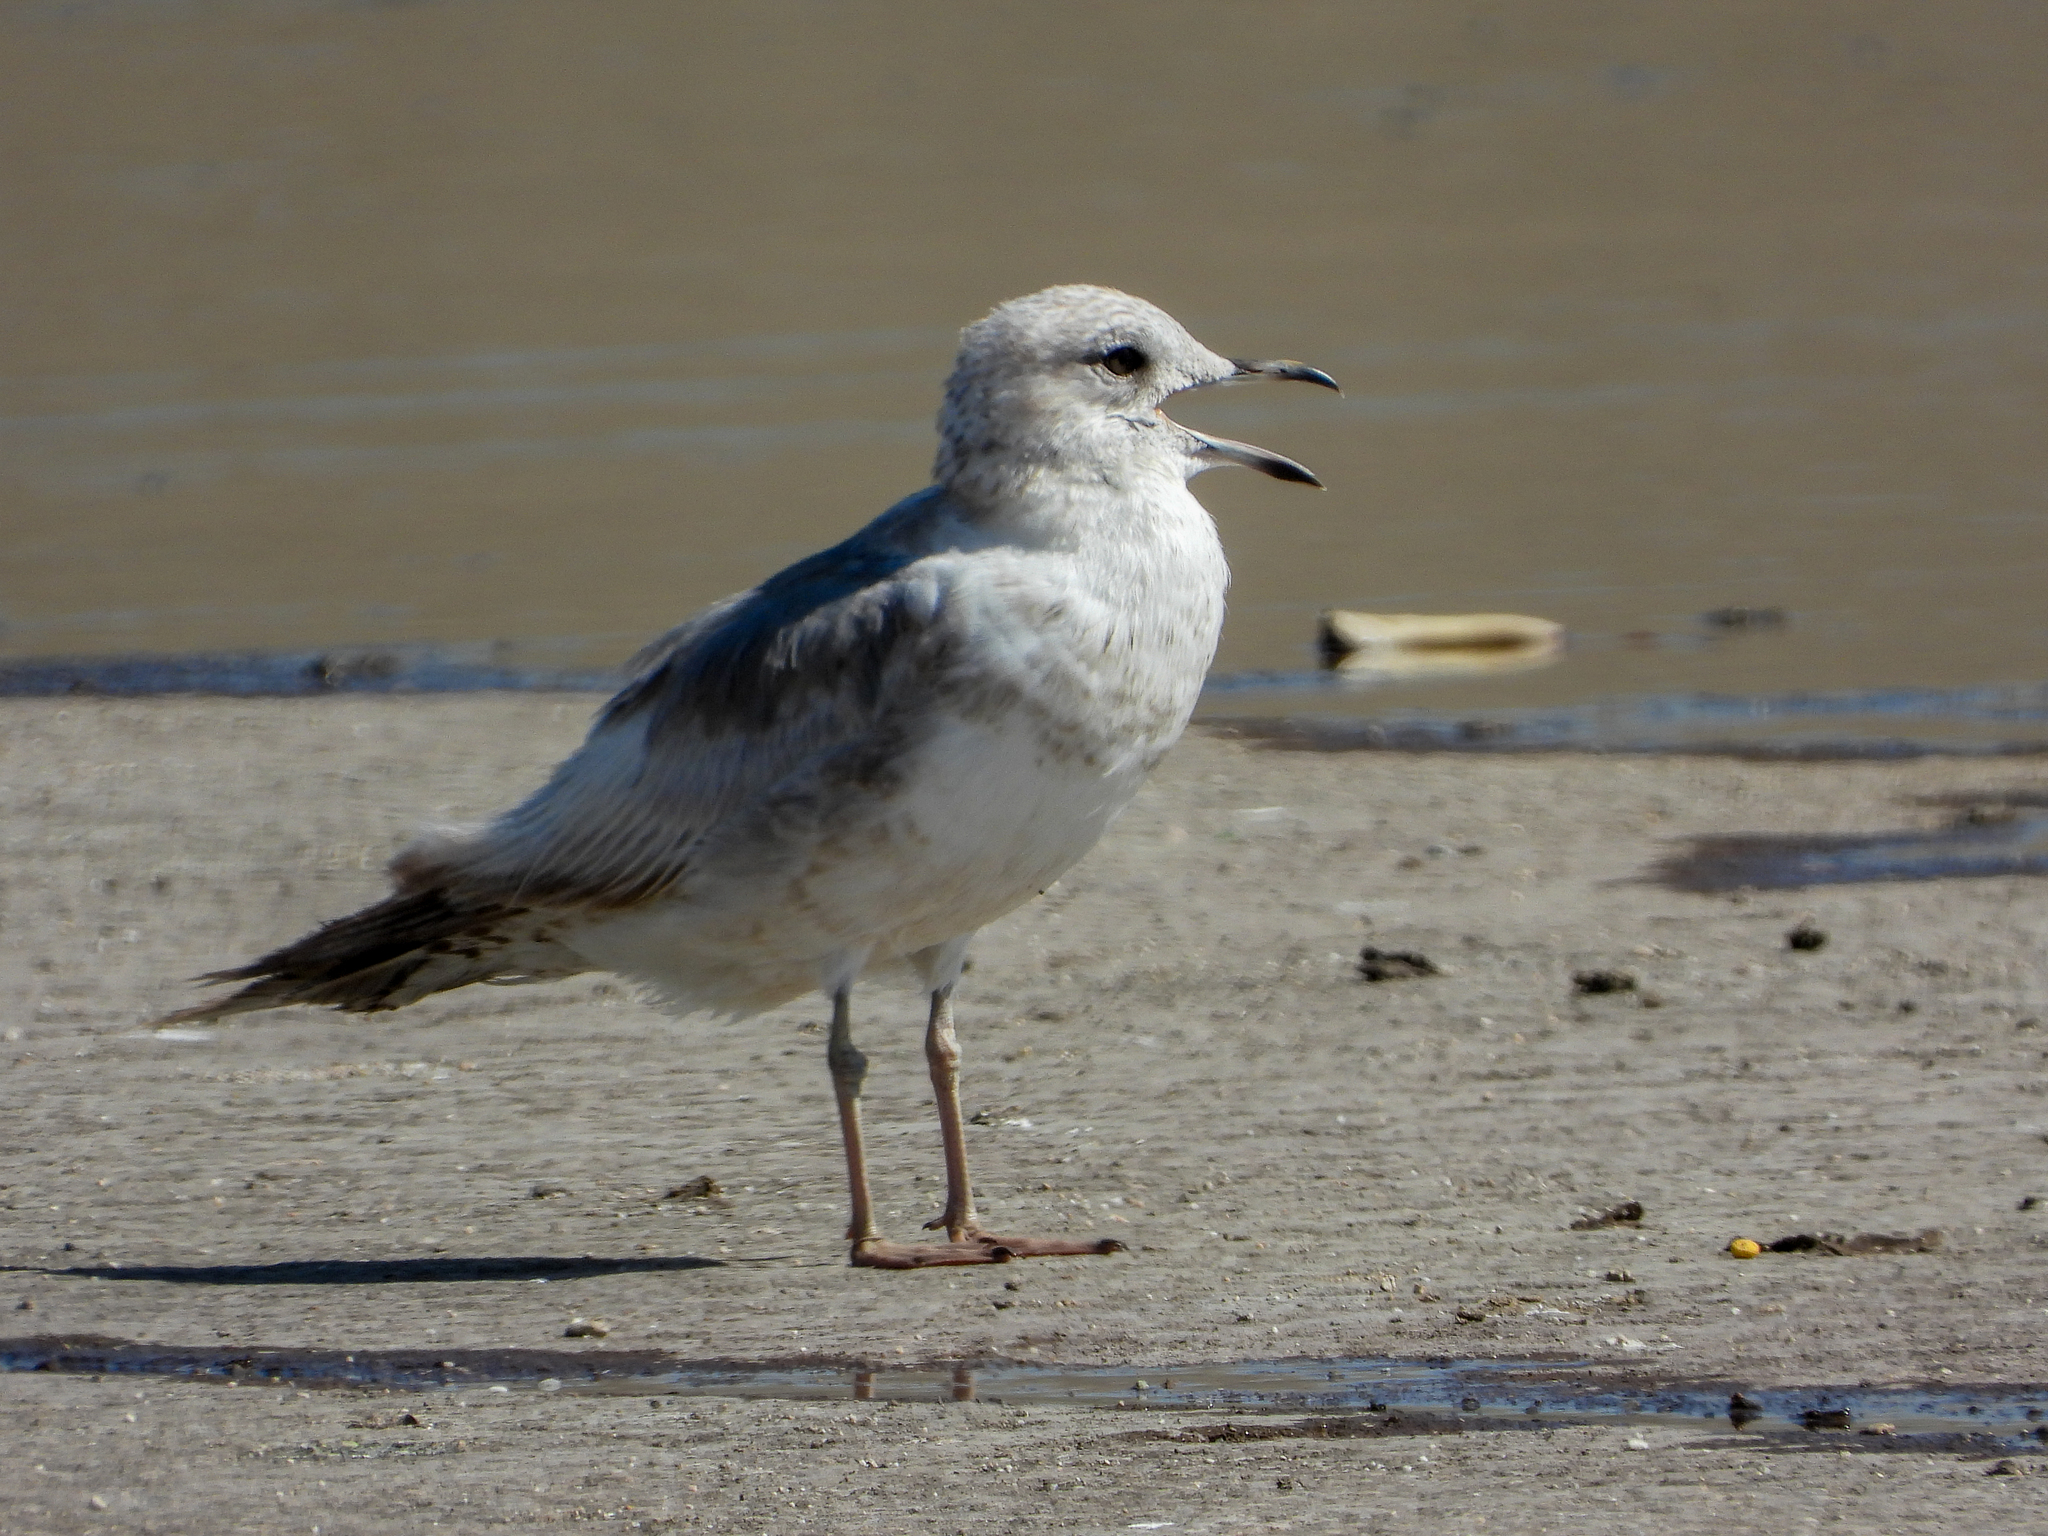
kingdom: Animalia
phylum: Chordata
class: Aves
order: Charadriiformes
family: Laridae
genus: Larus
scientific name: Larus brachyrhynchus
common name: Short-billed gull
